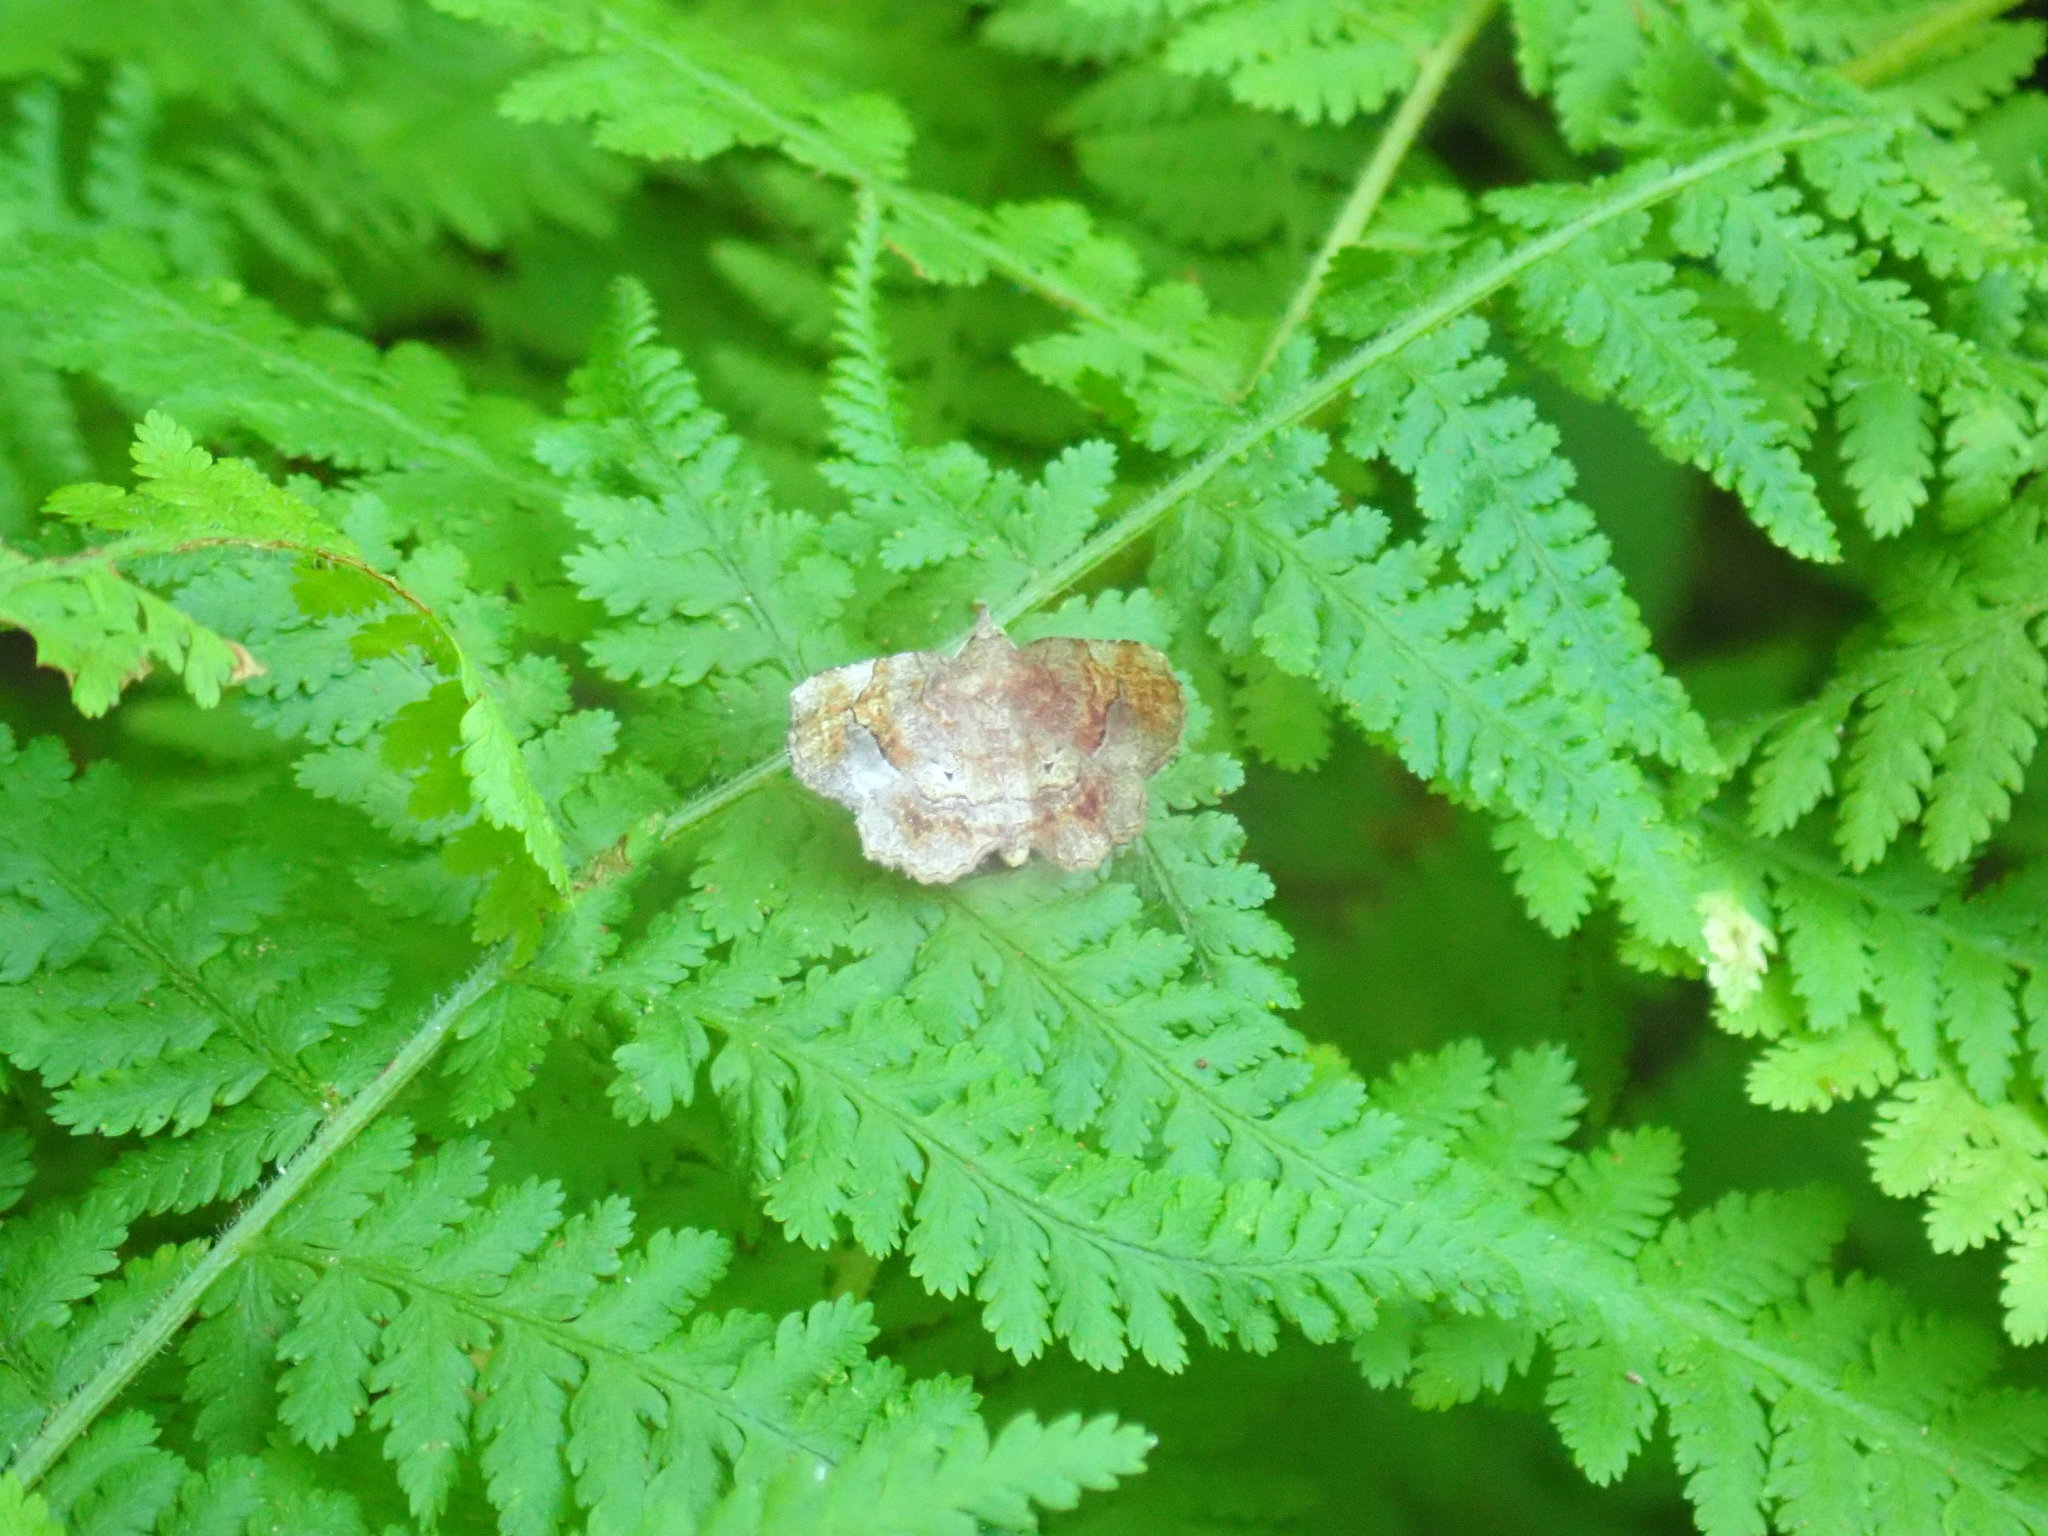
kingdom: Animalia
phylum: Arthropoda
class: Insecta
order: Lepidoptera
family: Erebidae
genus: Pangrapta
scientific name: Pangrapta decoralis
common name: Decorated owlet
